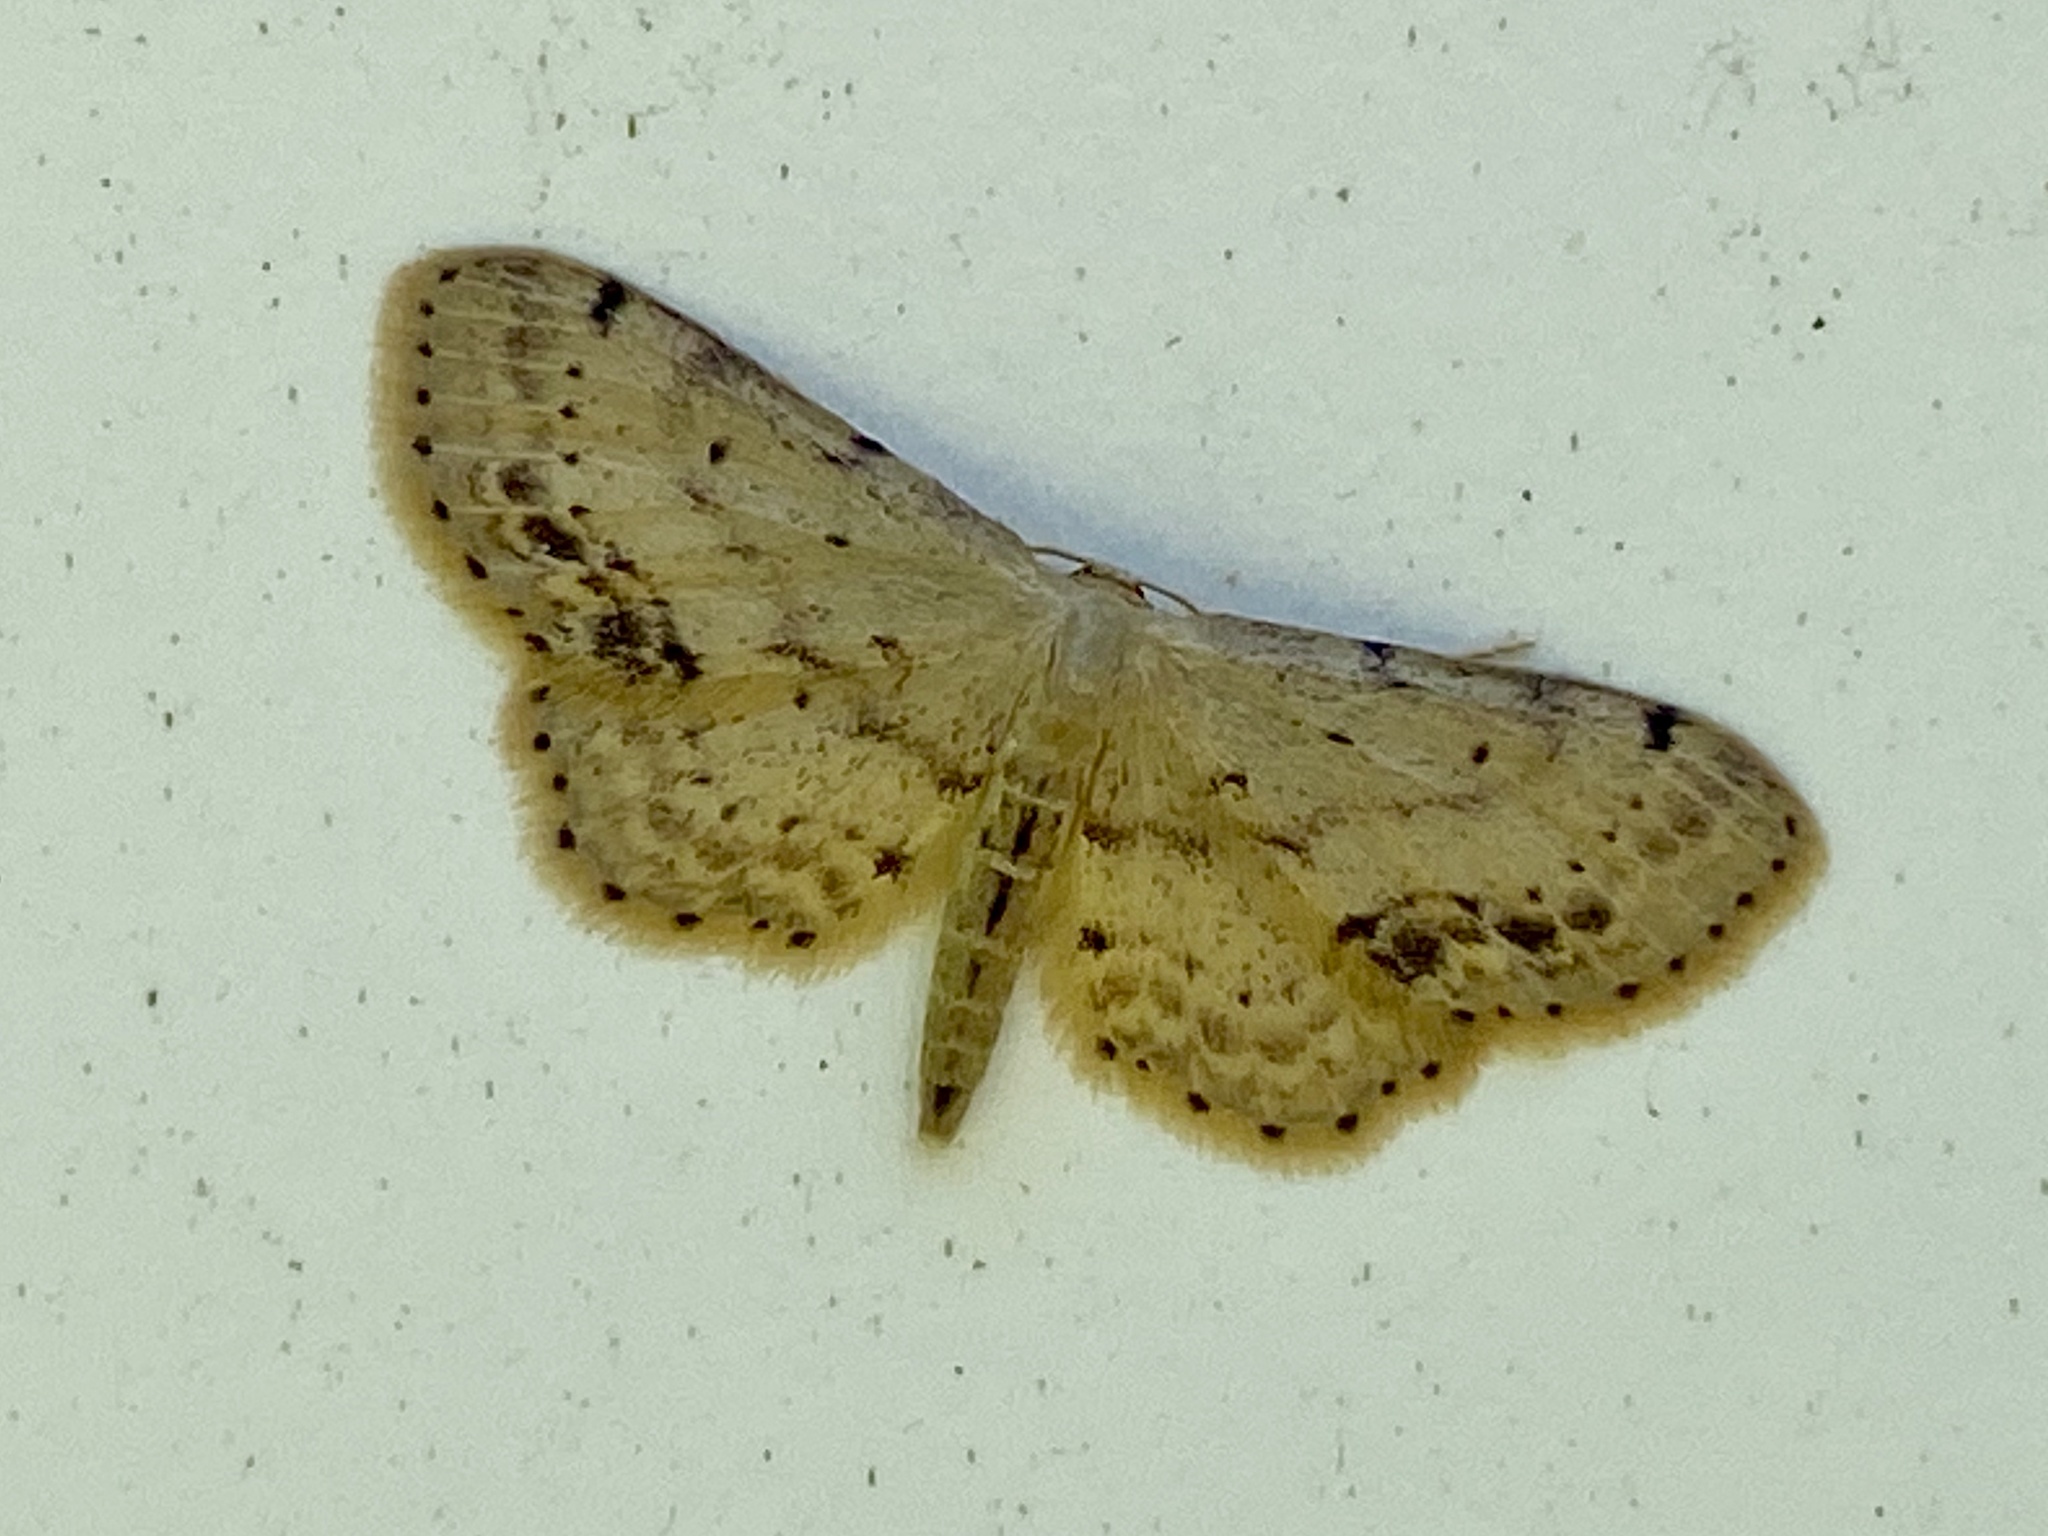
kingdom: Animalia
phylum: Arthropoda
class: Insecta
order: Lepidoptera
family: Geometridae
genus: Idaea
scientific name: Idaea dimidiata
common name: Single-dotted wave
